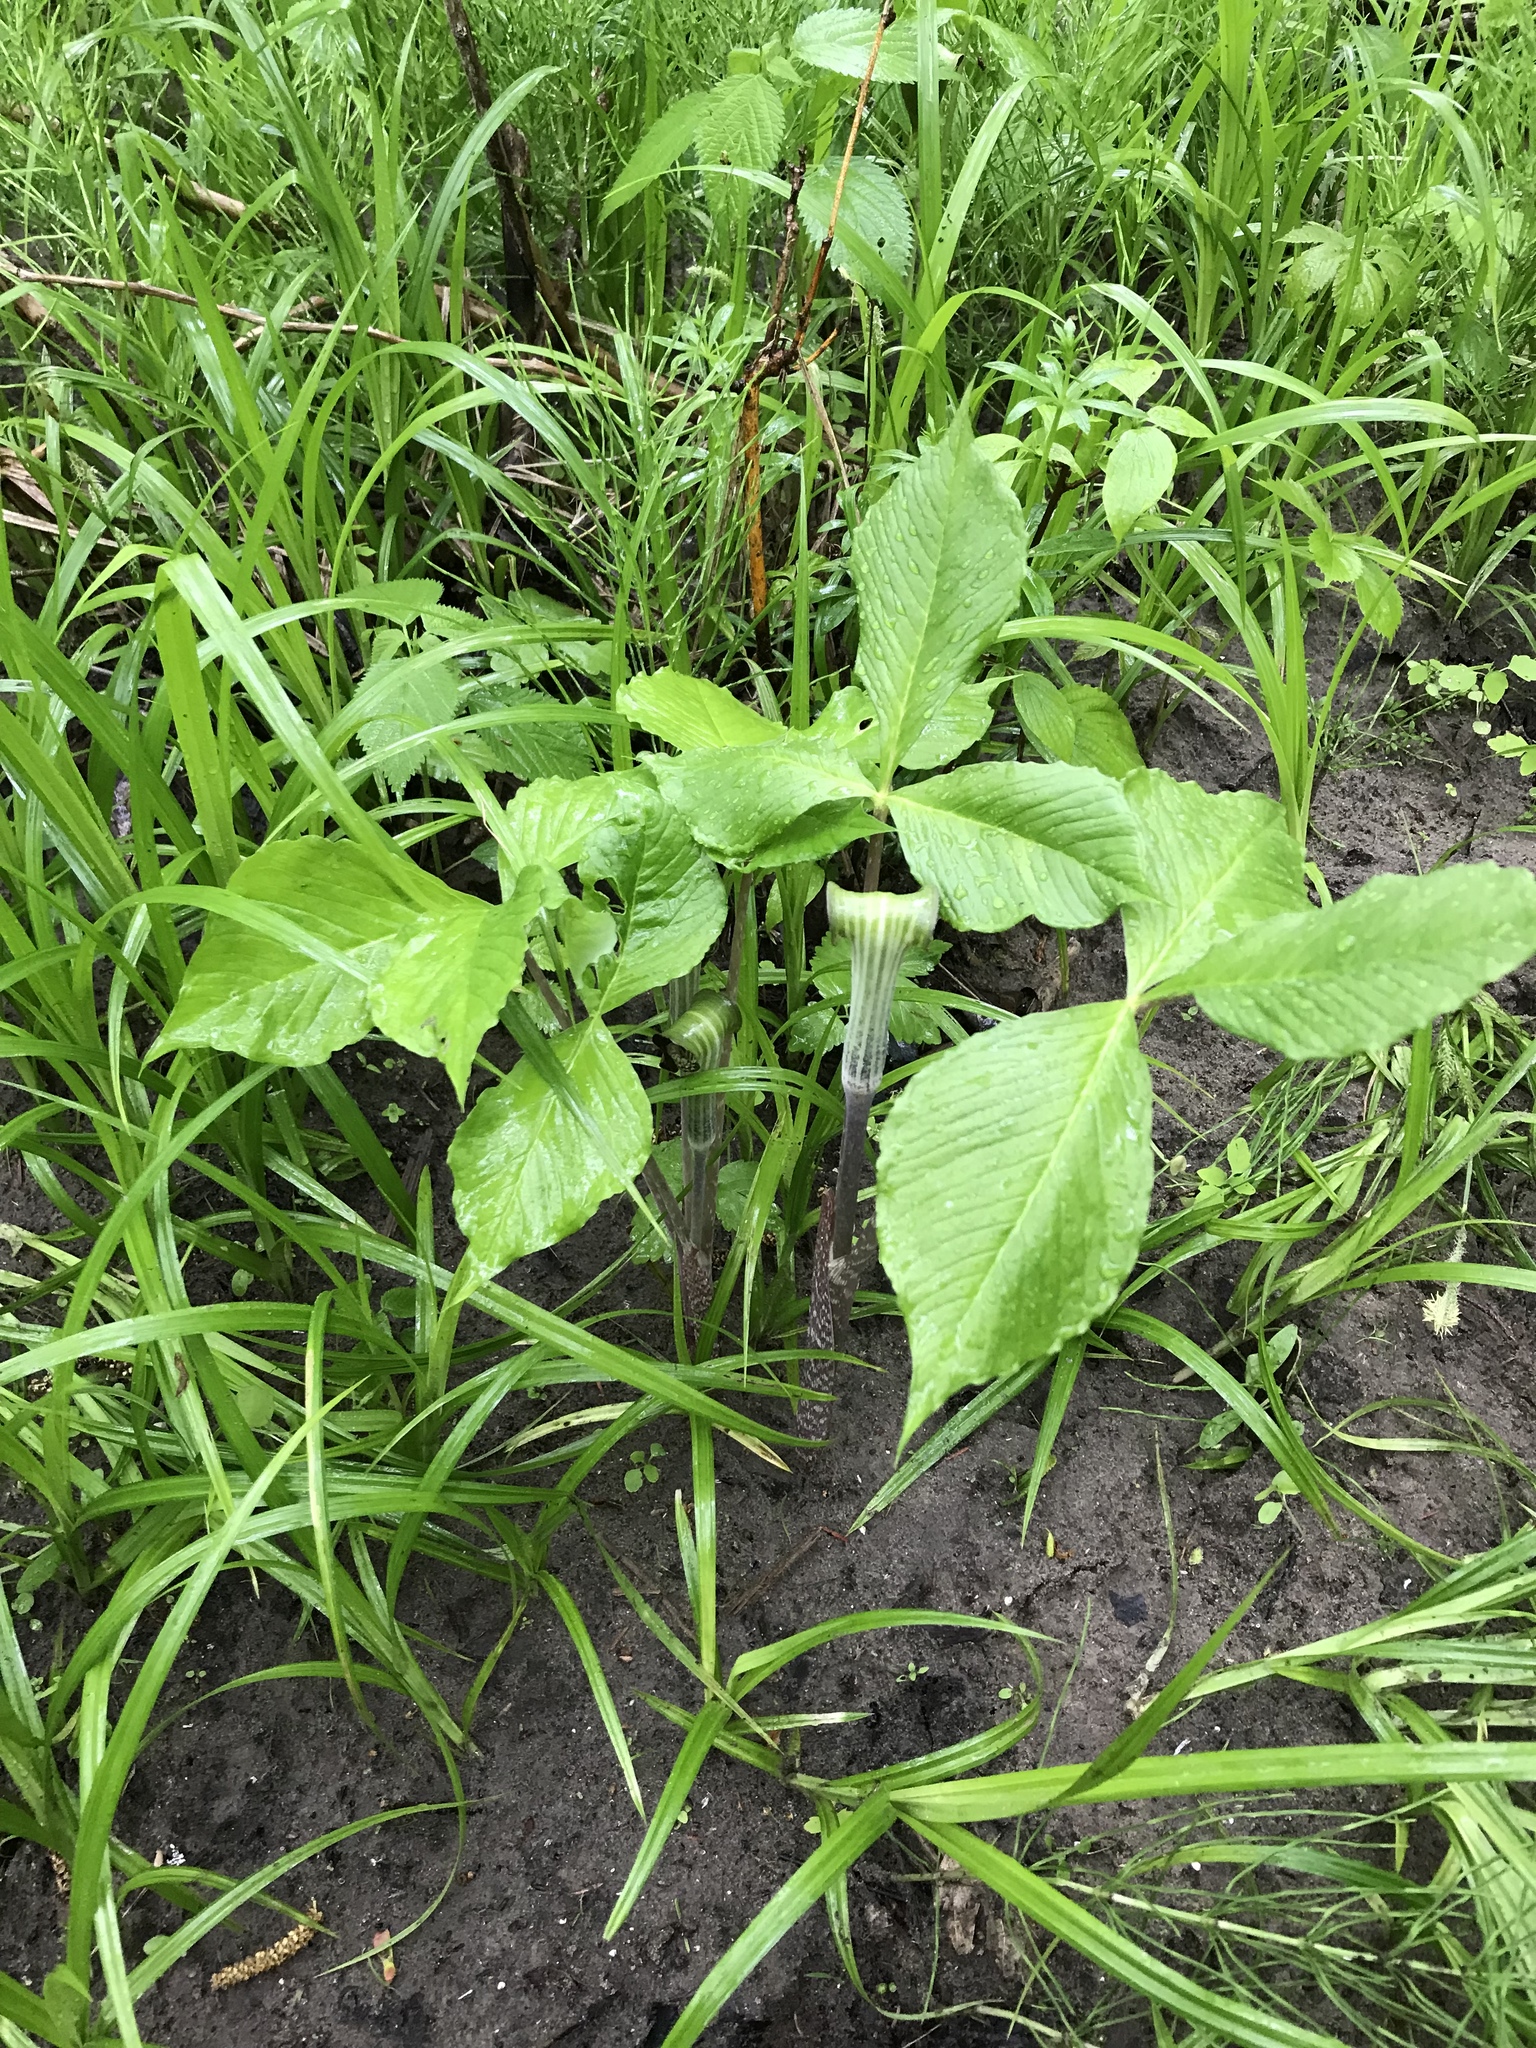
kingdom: Plantae
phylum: Tracheophyta
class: Liliopsida
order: Alismatales
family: Araceae
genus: Arisaema
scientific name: Arisaema triphyllum
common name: Jack-in-the-pulpit
